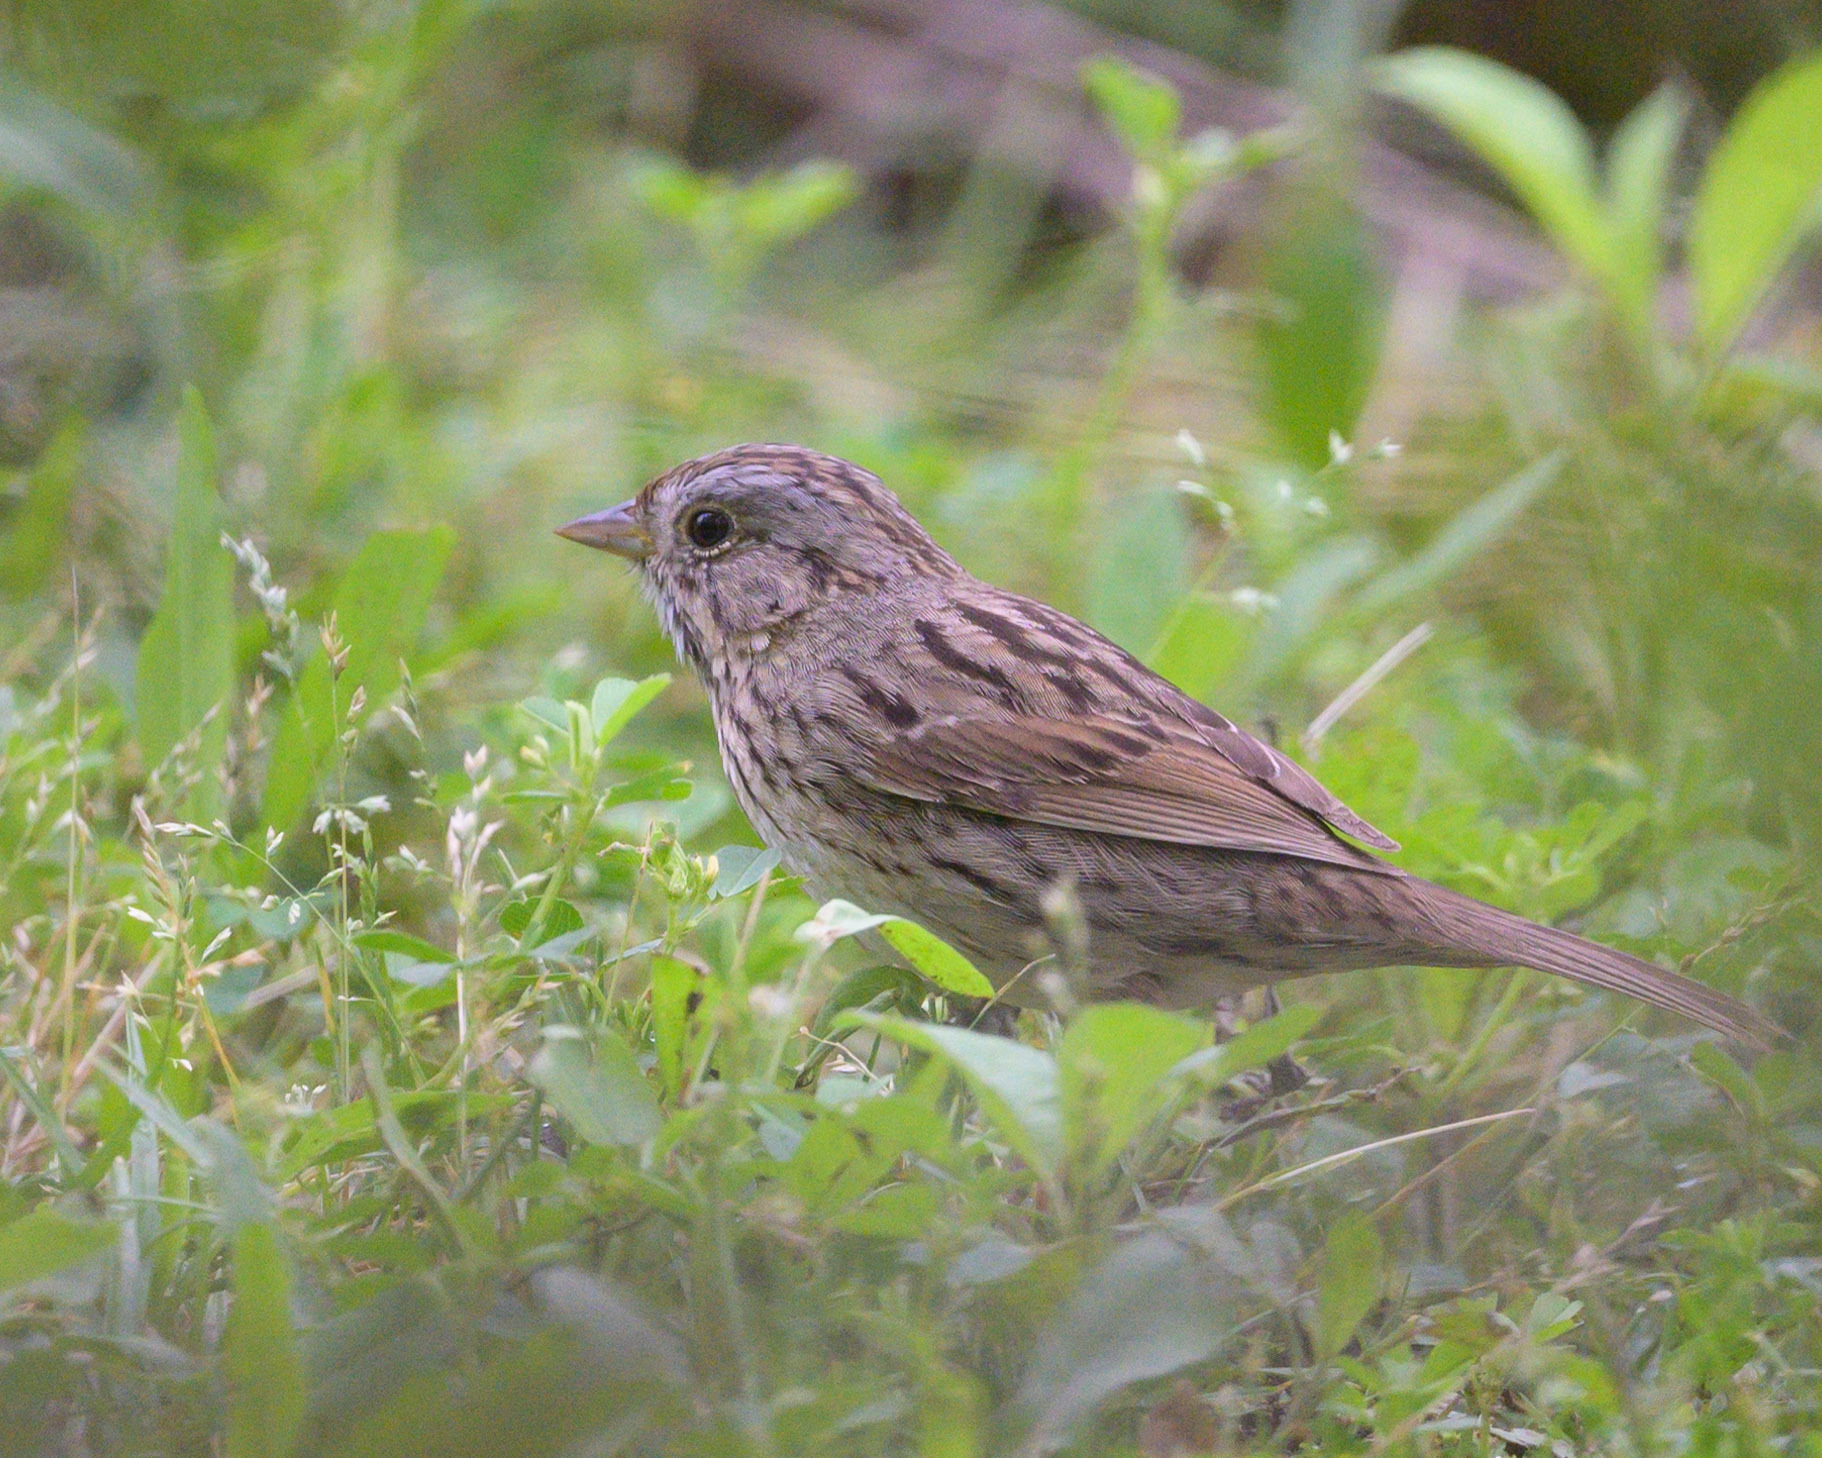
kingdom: Animalia
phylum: Chordata
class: Aves
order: Passeriformes
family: Passerellidae
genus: Melospiza
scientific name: Melospiza lincolnii
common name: Lincoln's sparrow
